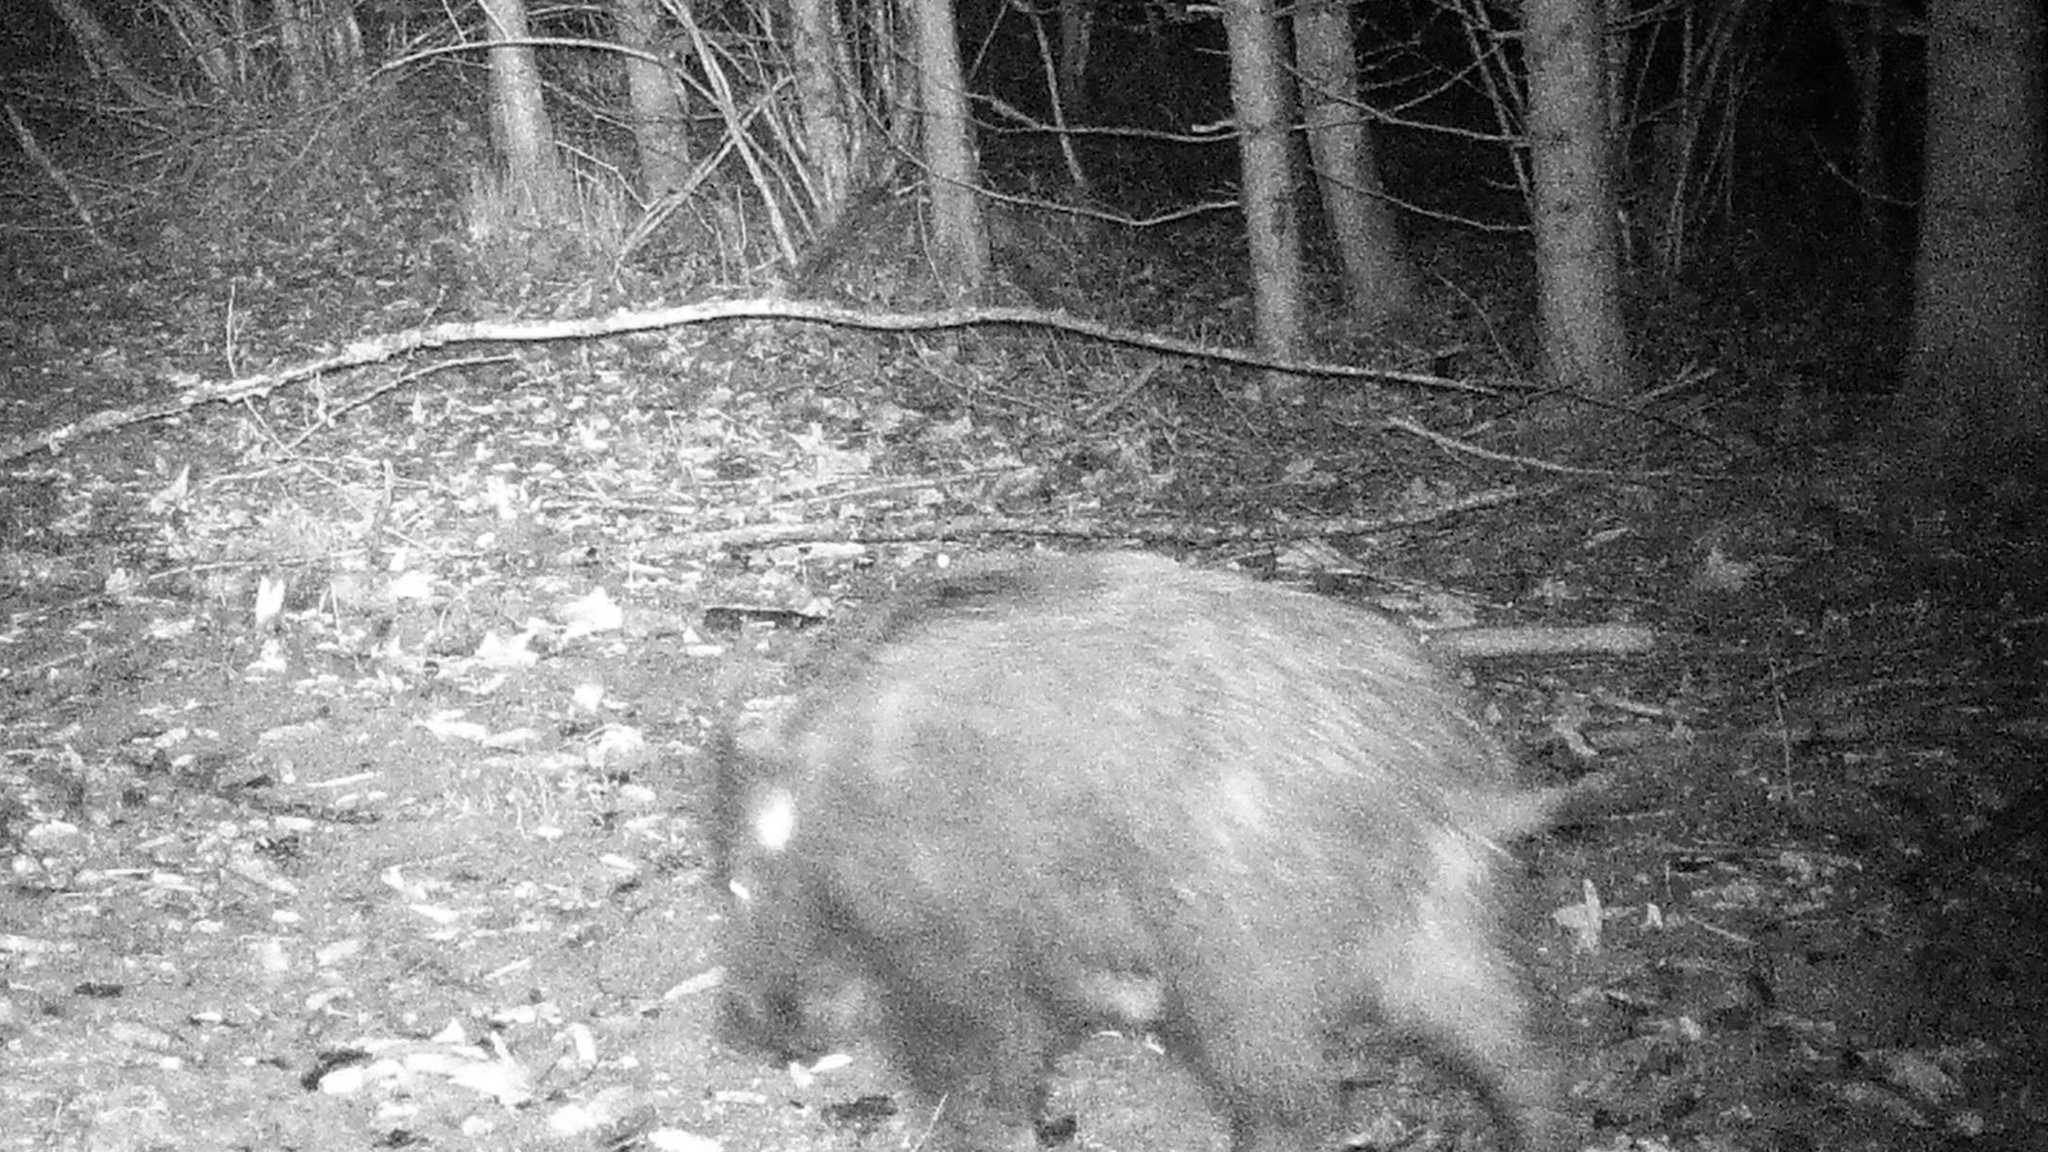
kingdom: Animalia
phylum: Chordata
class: Mammalia
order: Artiodactyla
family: Suidae
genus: Sus
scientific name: Sus scrofa
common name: Wild boar
